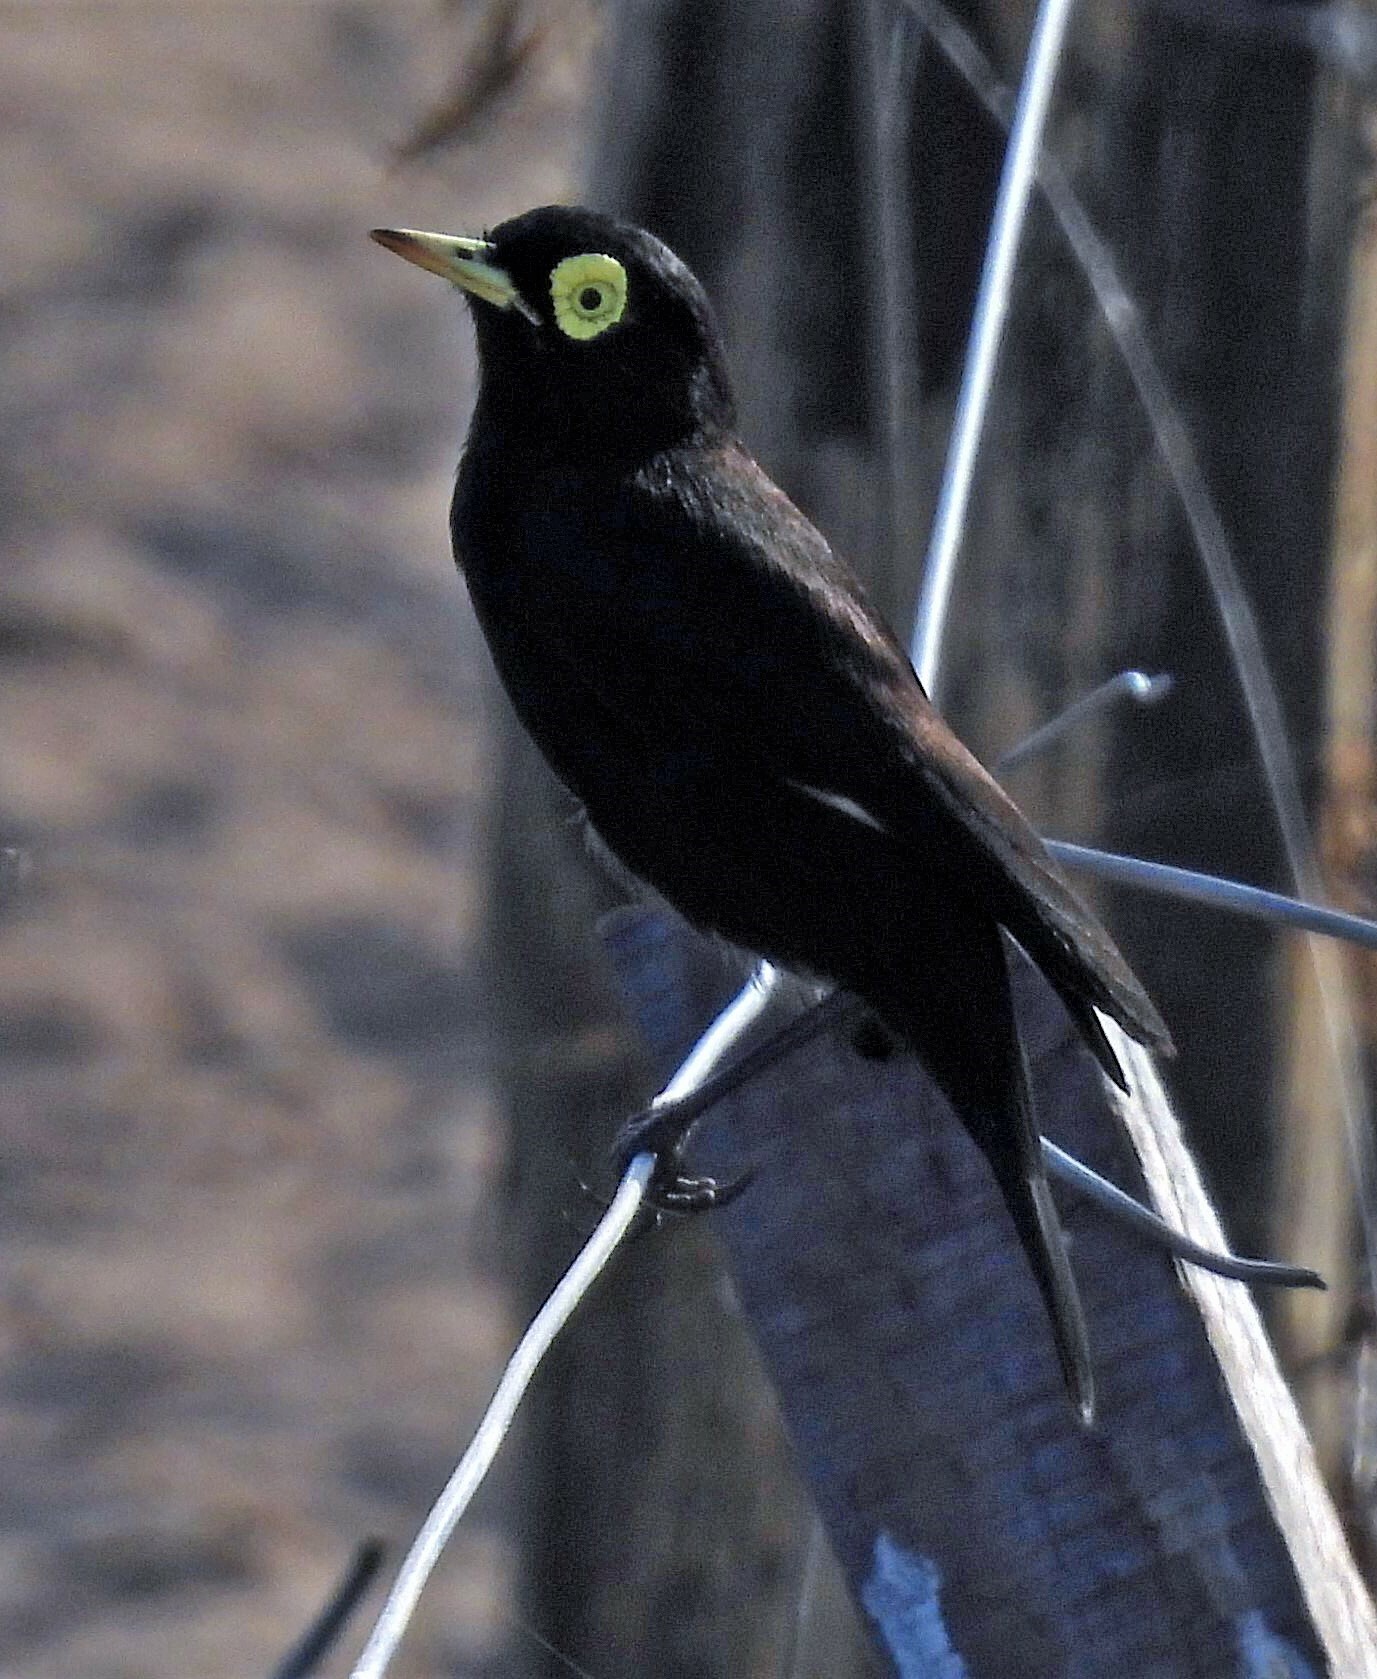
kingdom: Animalia
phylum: Chordata
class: Aves
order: Passeriformes
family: Tyrannidae
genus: Hymenops
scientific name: Hymenops perspicillatus
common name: Spectacled tyrant
